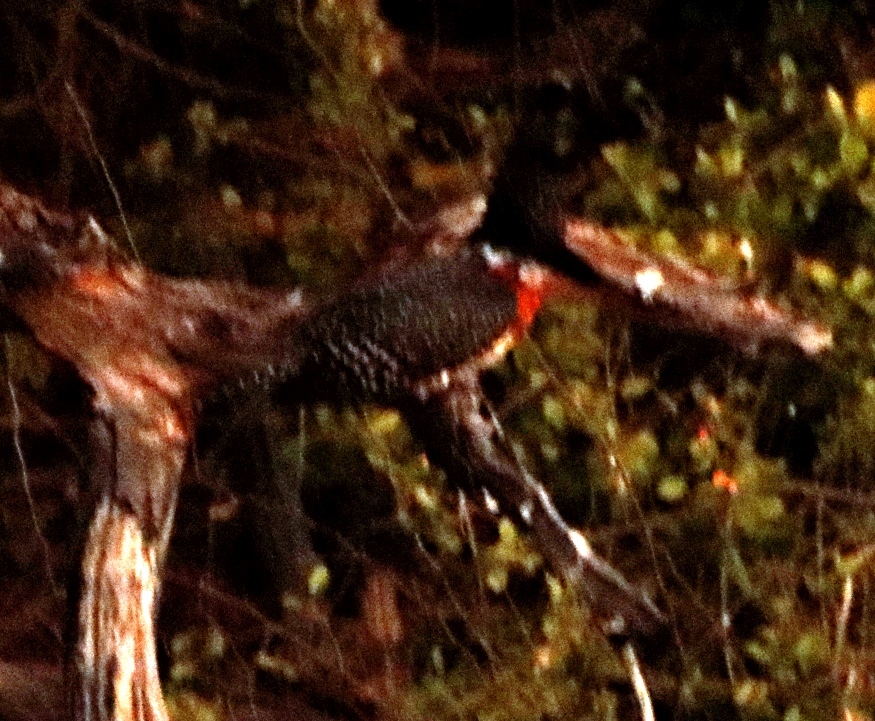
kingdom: Animalia
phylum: Chordata
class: Aves
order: Coraciiformes
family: Alcedinidae
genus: Megaceryle
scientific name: Megaceryle maxima
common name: Giant kingfisher
